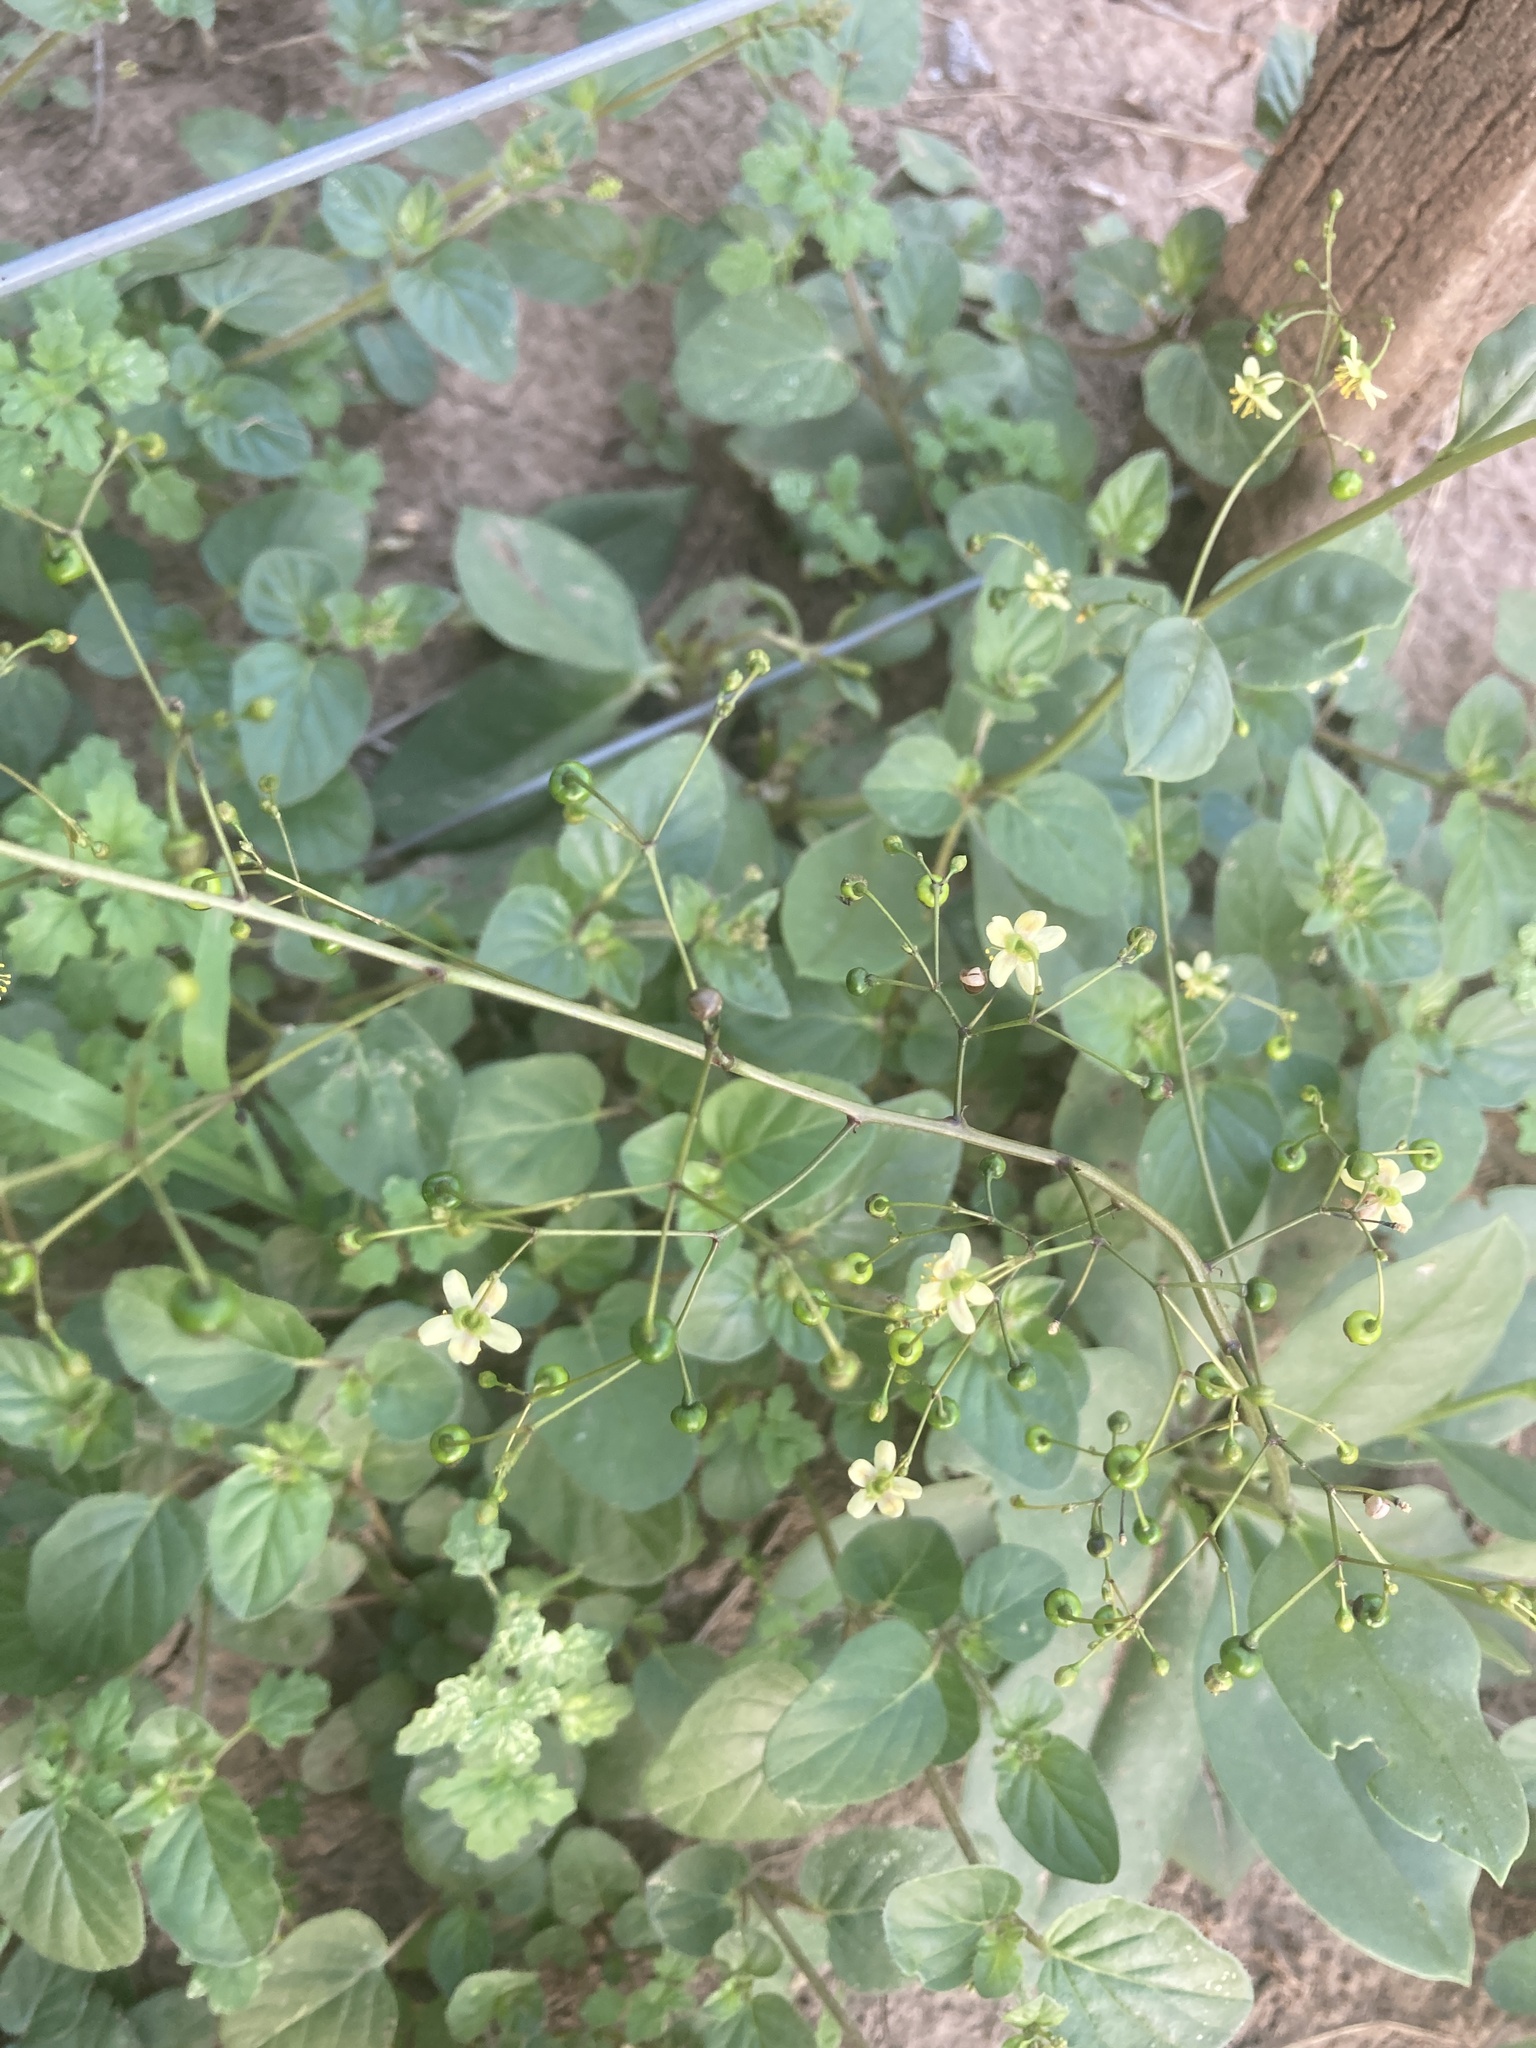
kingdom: Plantae
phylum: Tracheophyta
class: Magnoliopsida
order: Caryophyllales
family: Talinaceae
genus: Talinum
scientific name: Talinum paniculatum
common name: Jewels of opar
